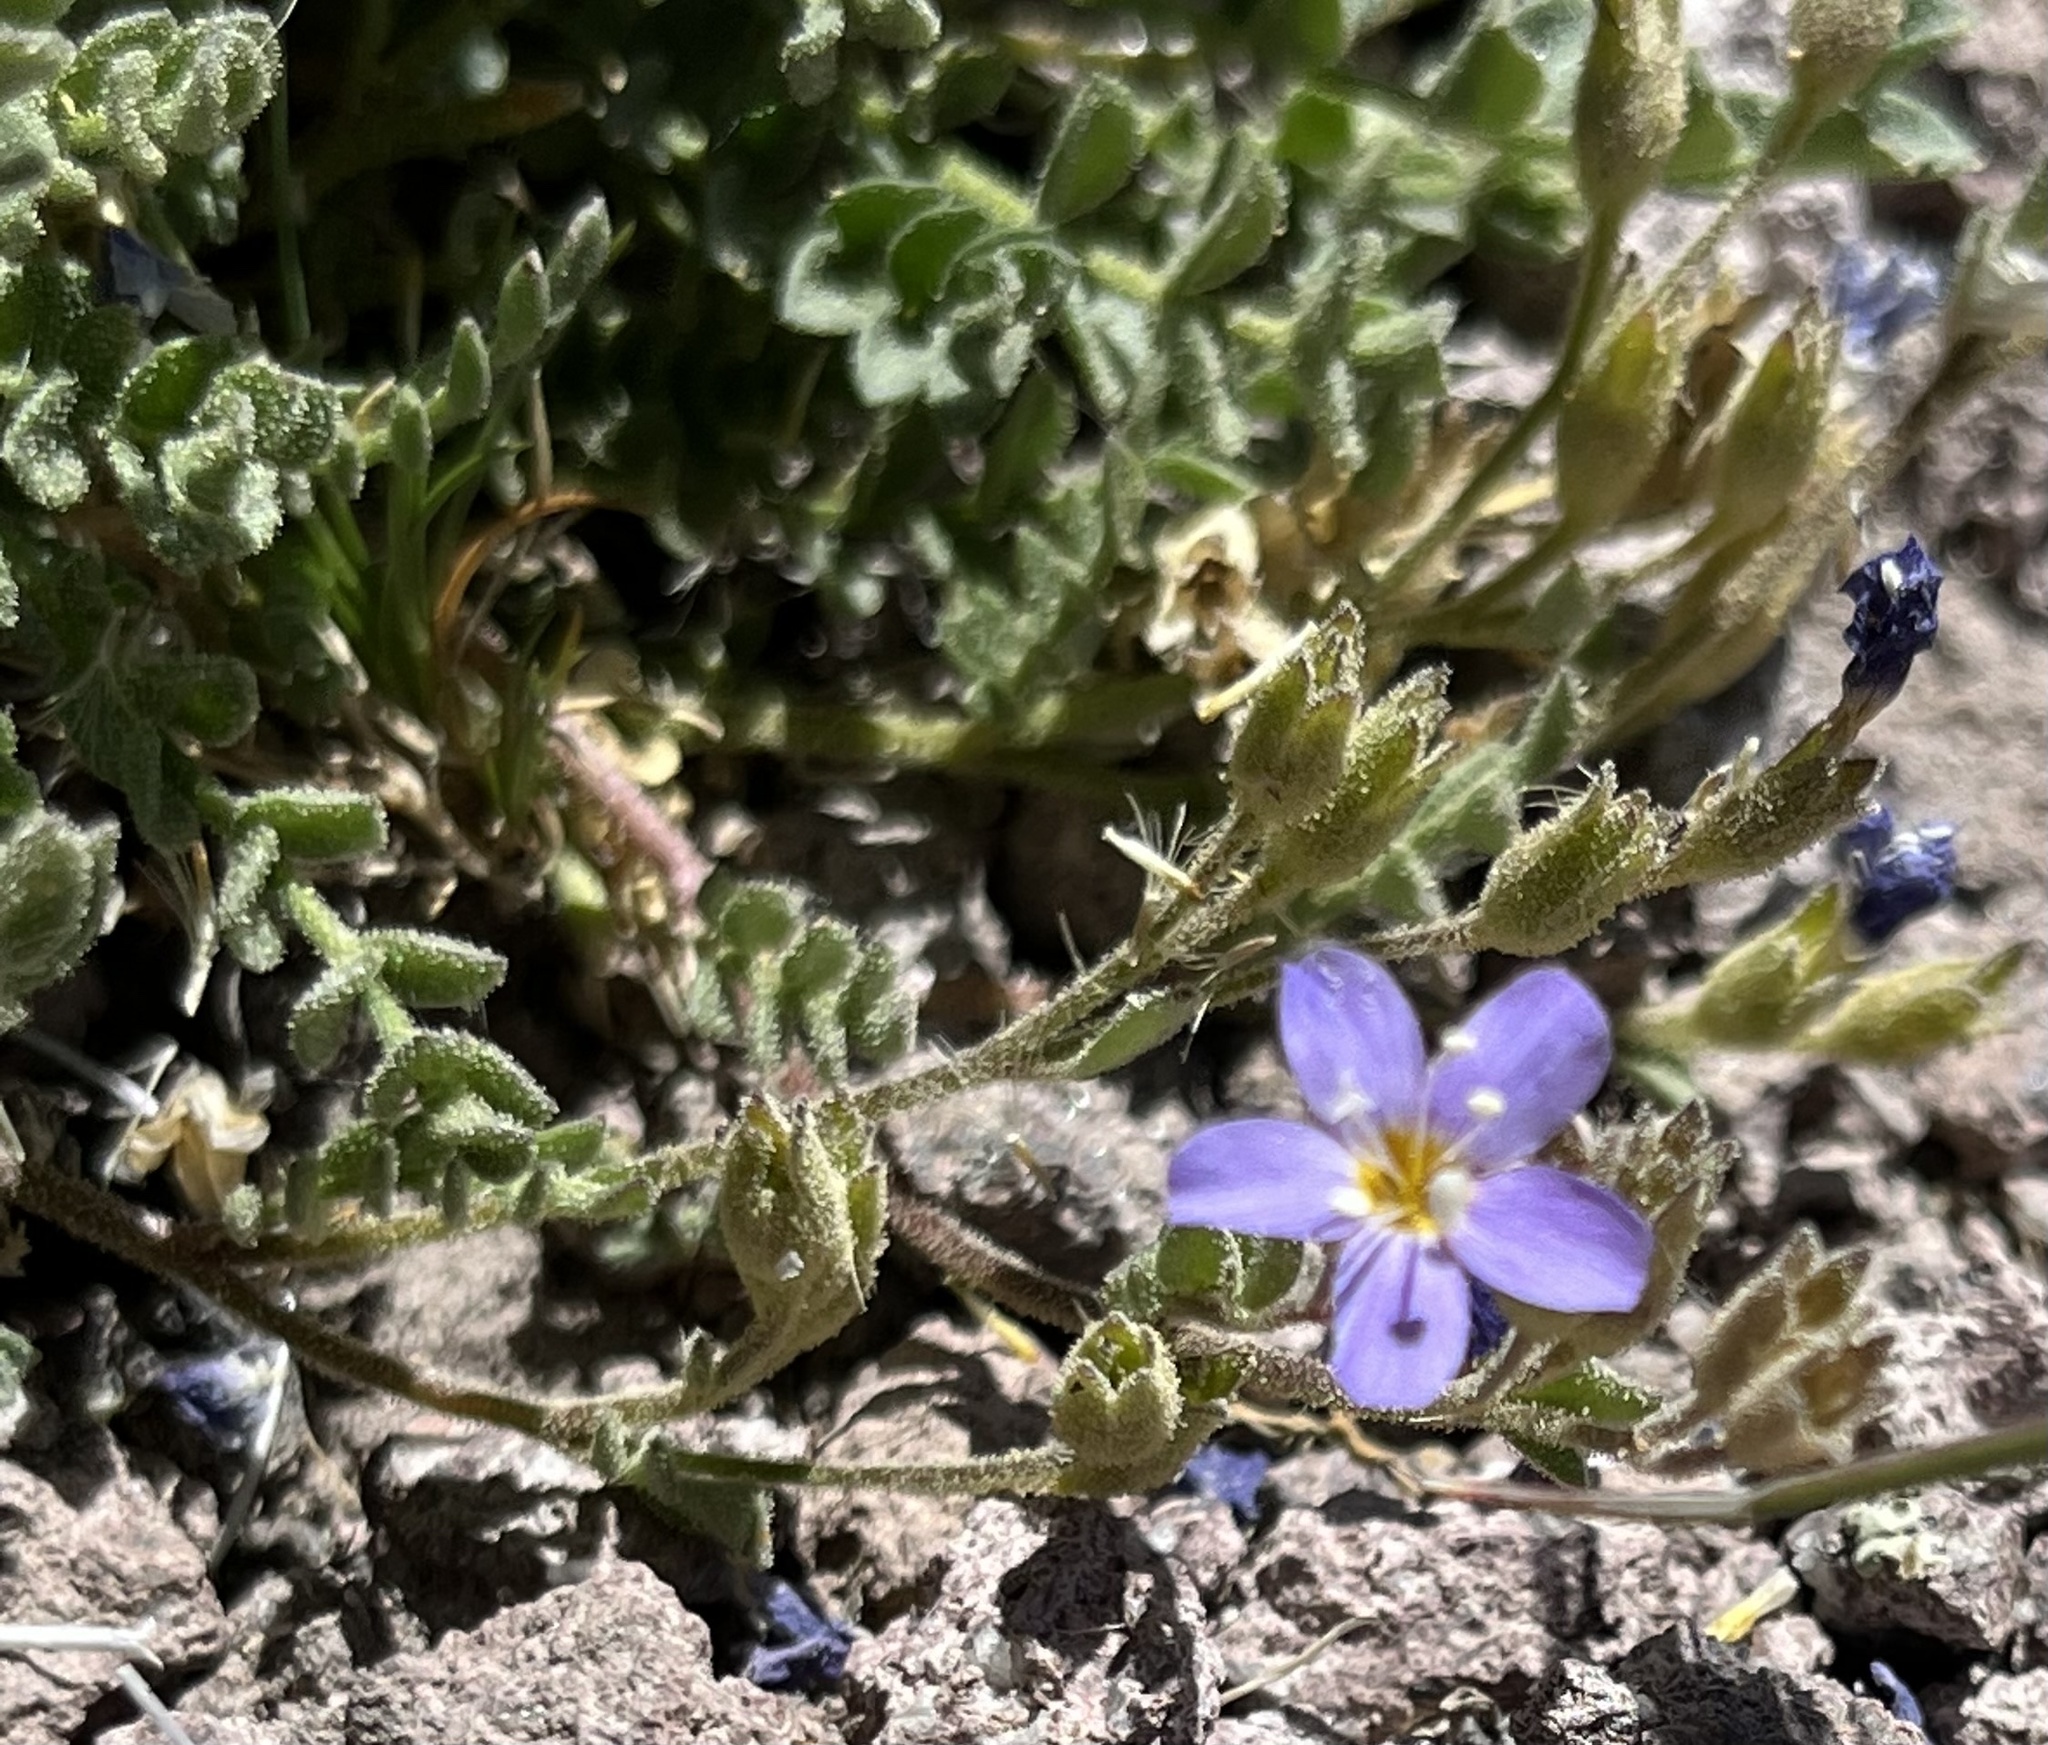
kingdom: Plantae
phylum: Tracheophyta
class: Magnoliopsida
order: Ericales
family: Polemoniaceae
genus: Polemonium
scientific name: Polemonium pulcherrimum
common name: Short jacob's-ladder
